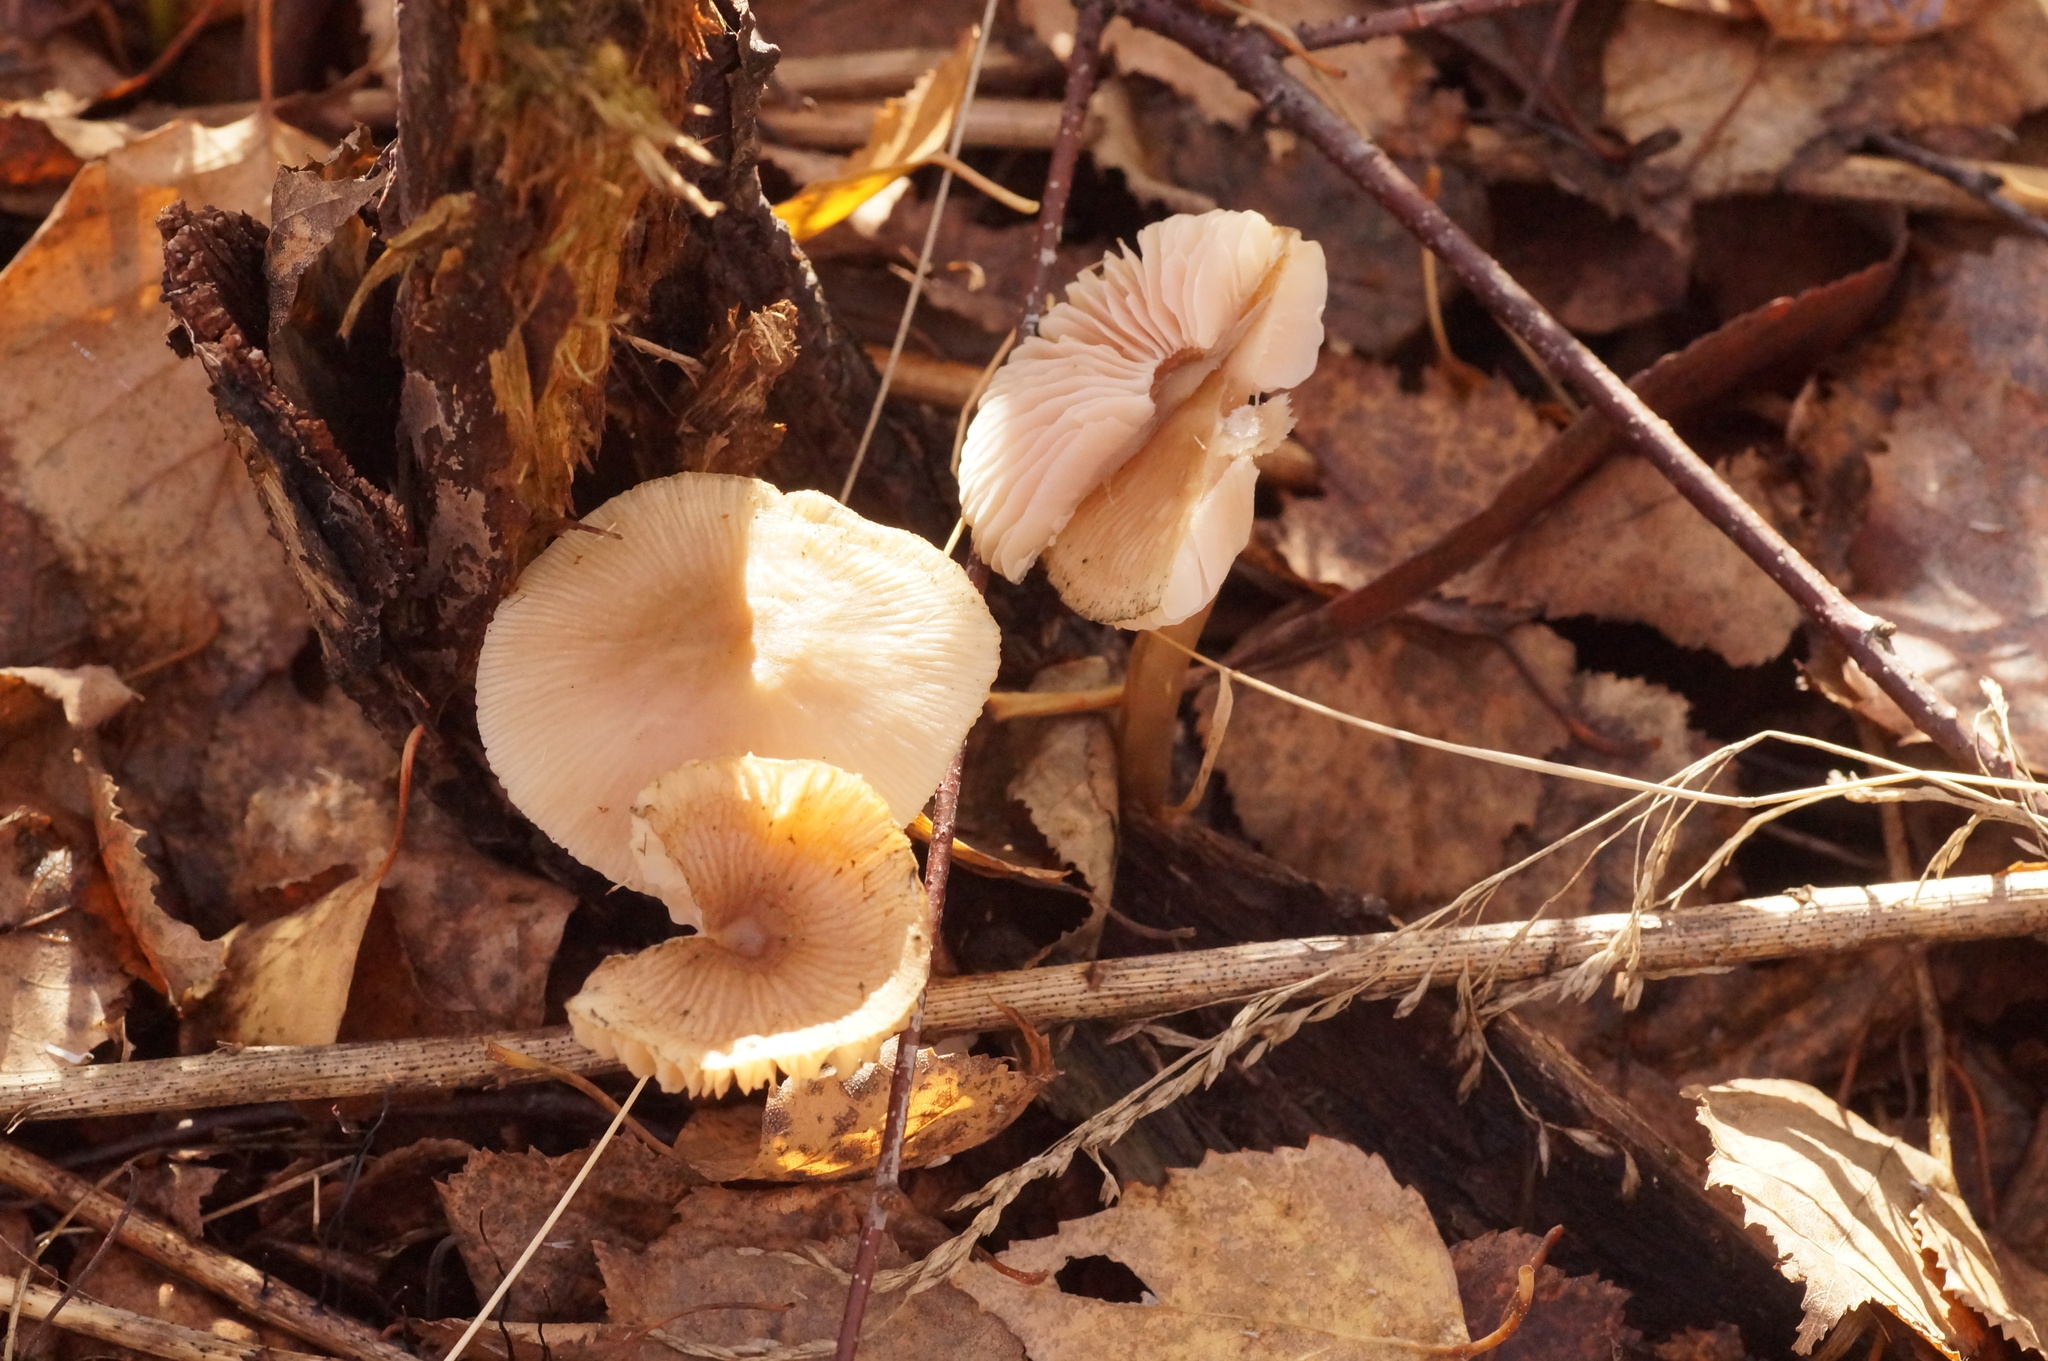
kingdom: Fungi
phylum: Basidiomycota
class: Agaricomycetes
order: Agaricales
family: Mycenaceae
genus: Mycena
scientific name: Mycena galericulata
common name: Bonnet mycena
